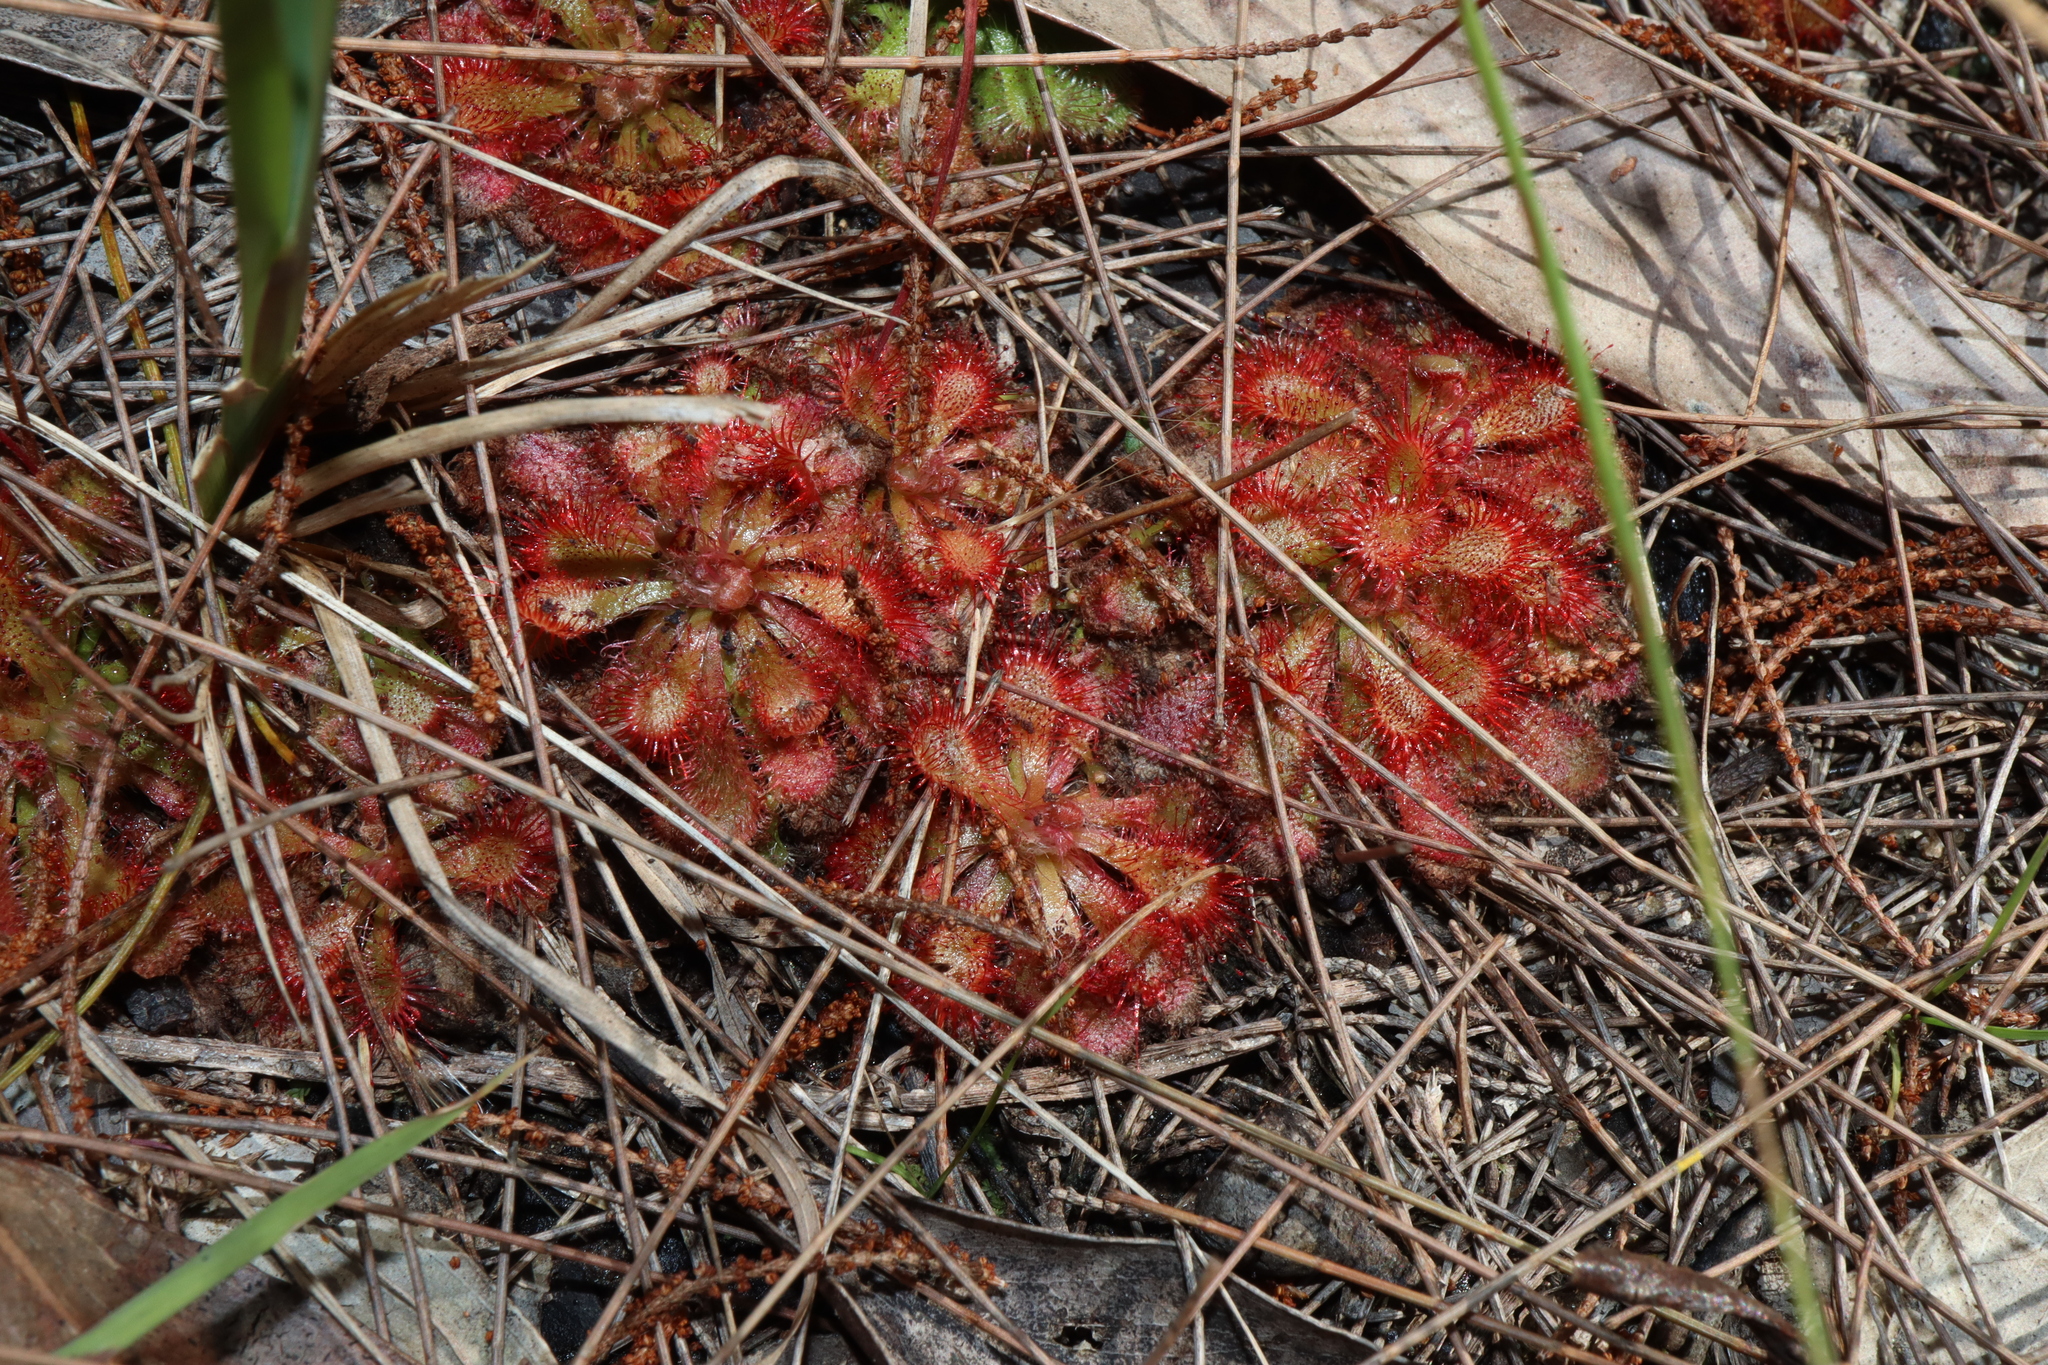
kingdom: Plantae
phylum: Tracheophyta
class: Magnoliopsida
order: Caryophyllales
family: Droseraceae
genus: Drosera
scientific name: Drosera spatulata
